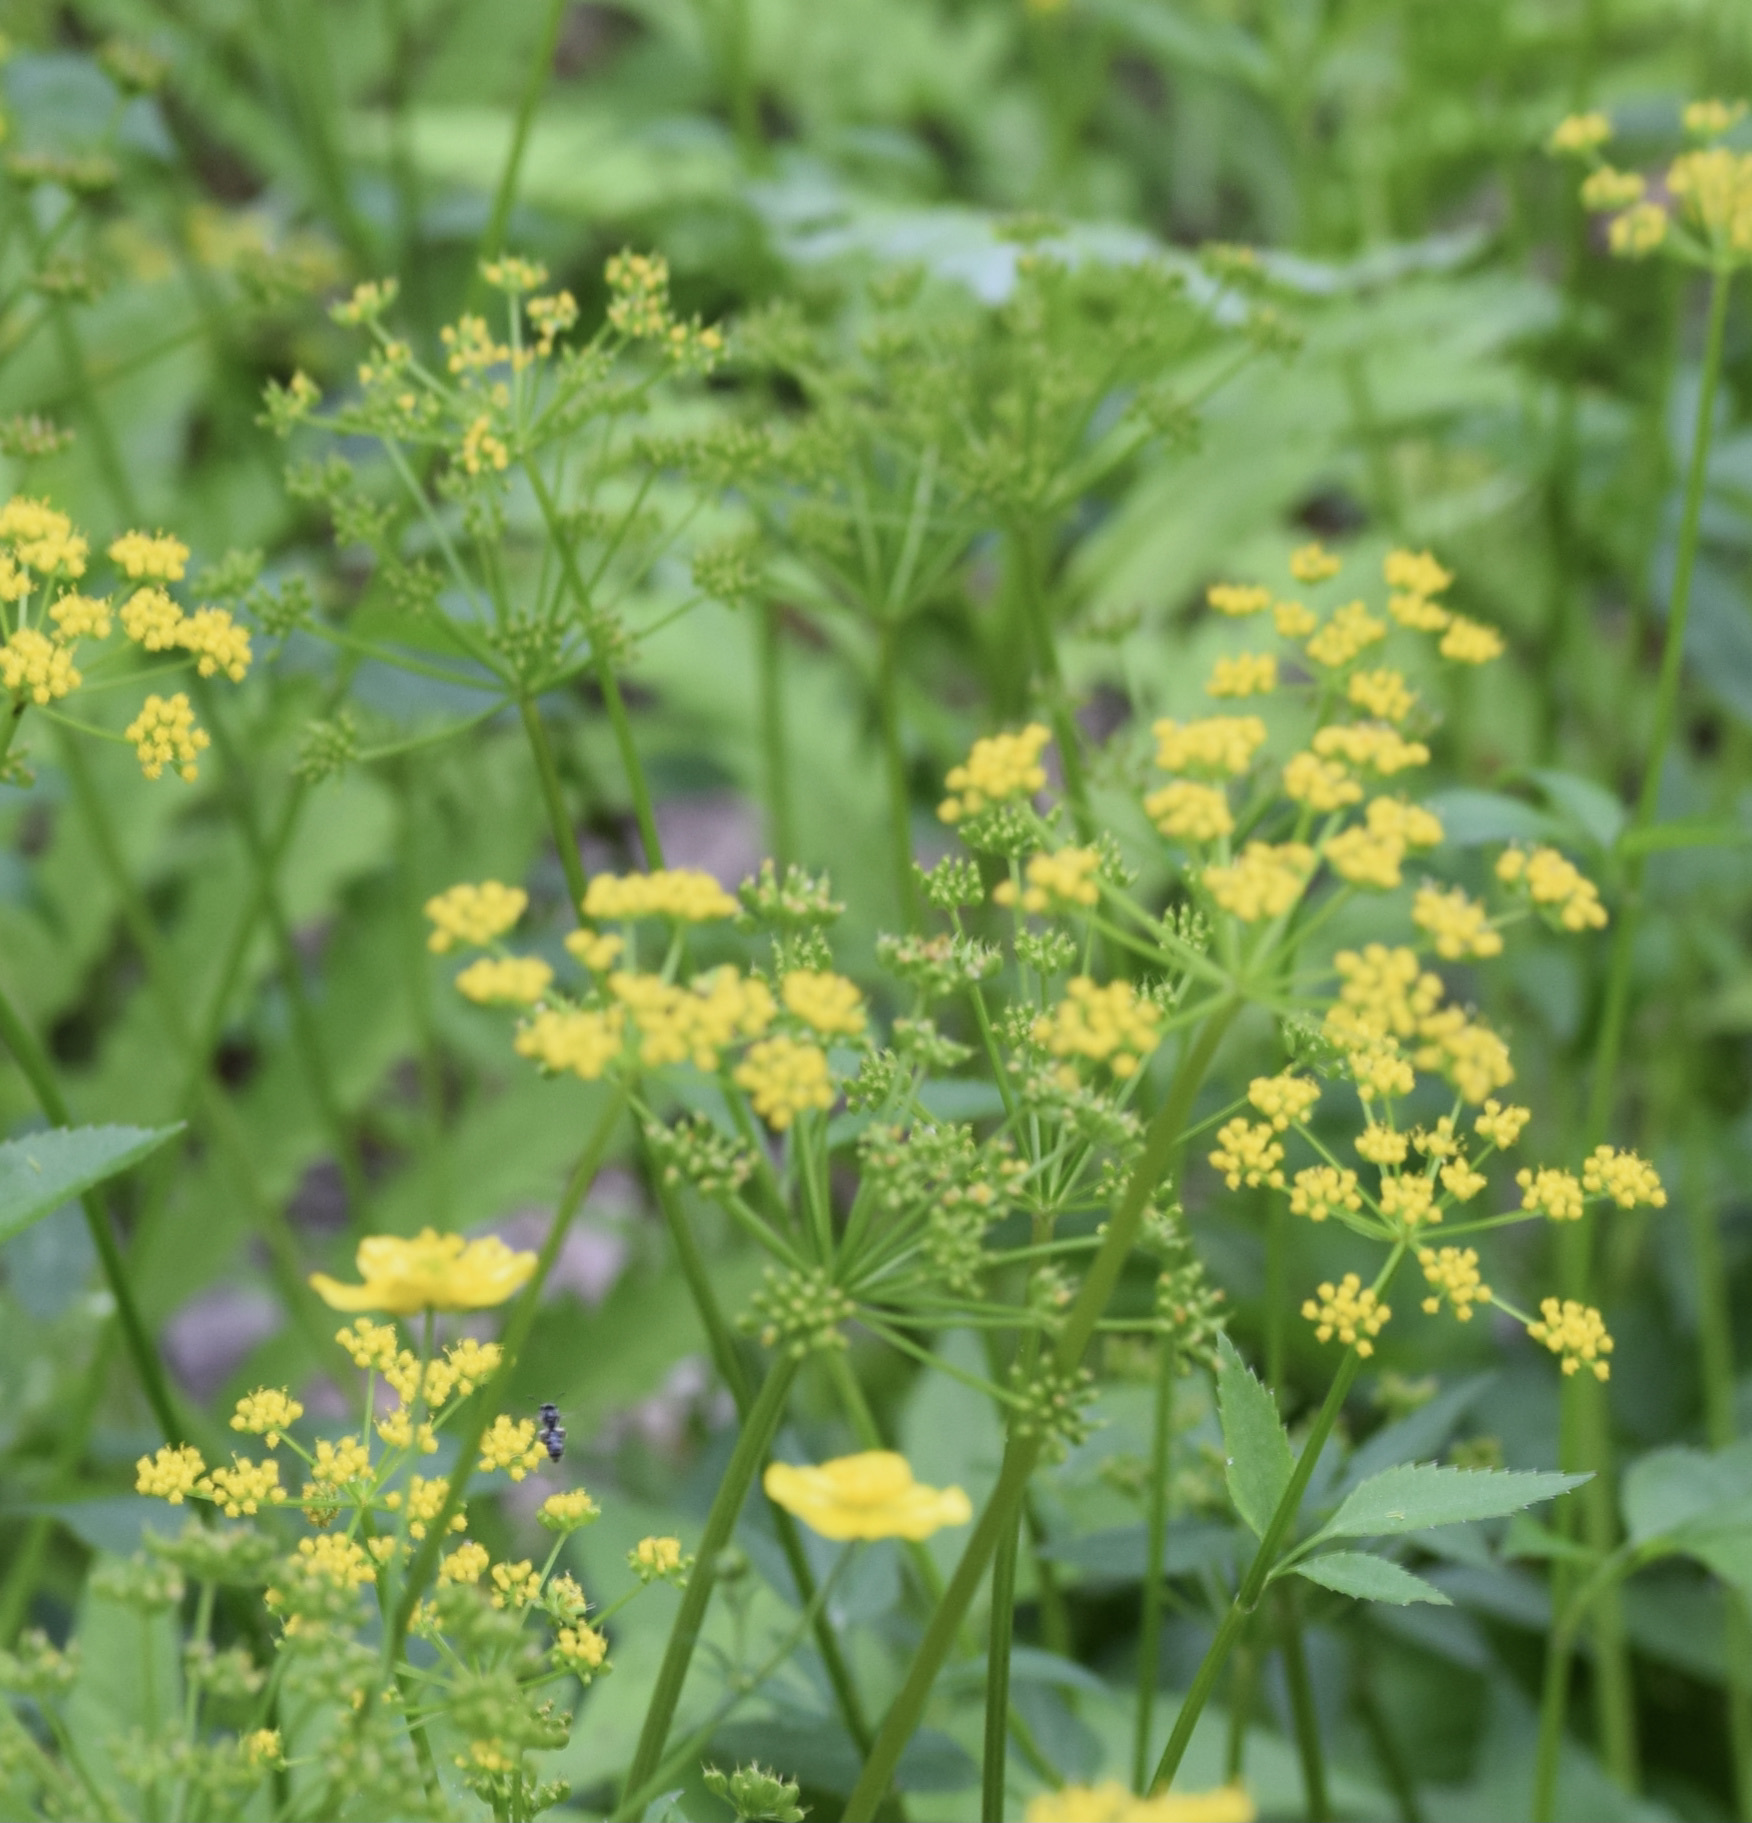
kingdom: Plantae
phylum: Tracheophyta
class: Magnoliopsida
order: Apiales
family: Apiaceae
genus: Zizia
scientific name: Zizia aurea
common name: Golden alexanders
